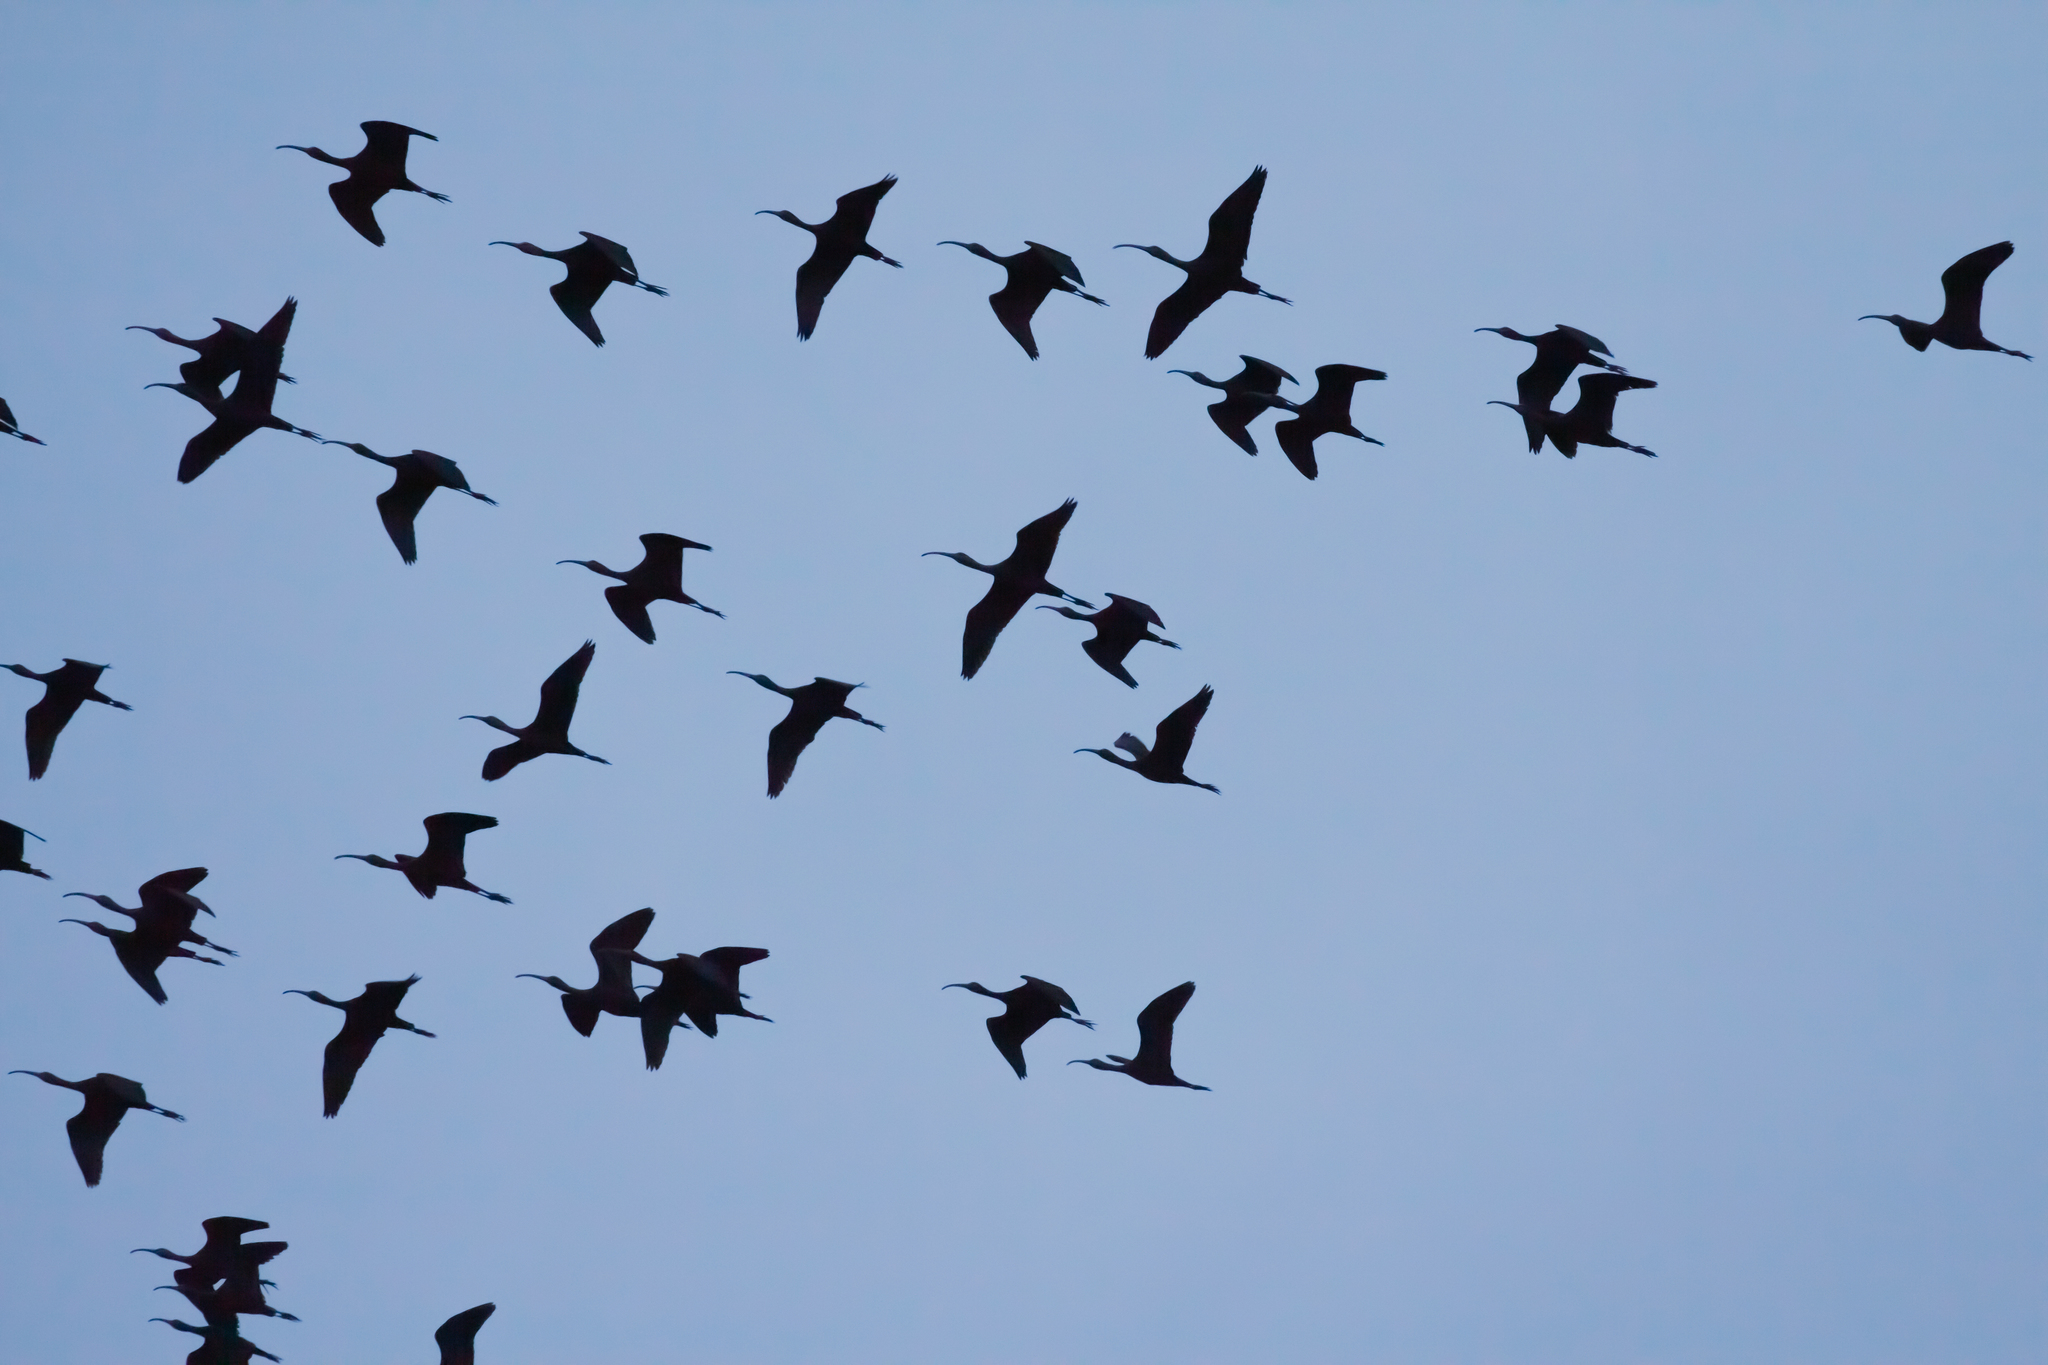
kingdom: Animalia
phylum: Chordata
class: Aves
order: Pelecaniformes
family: Threskiornithidae
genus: Plegadis
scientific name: Plegadis falcinellus
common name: Glossy ibis
